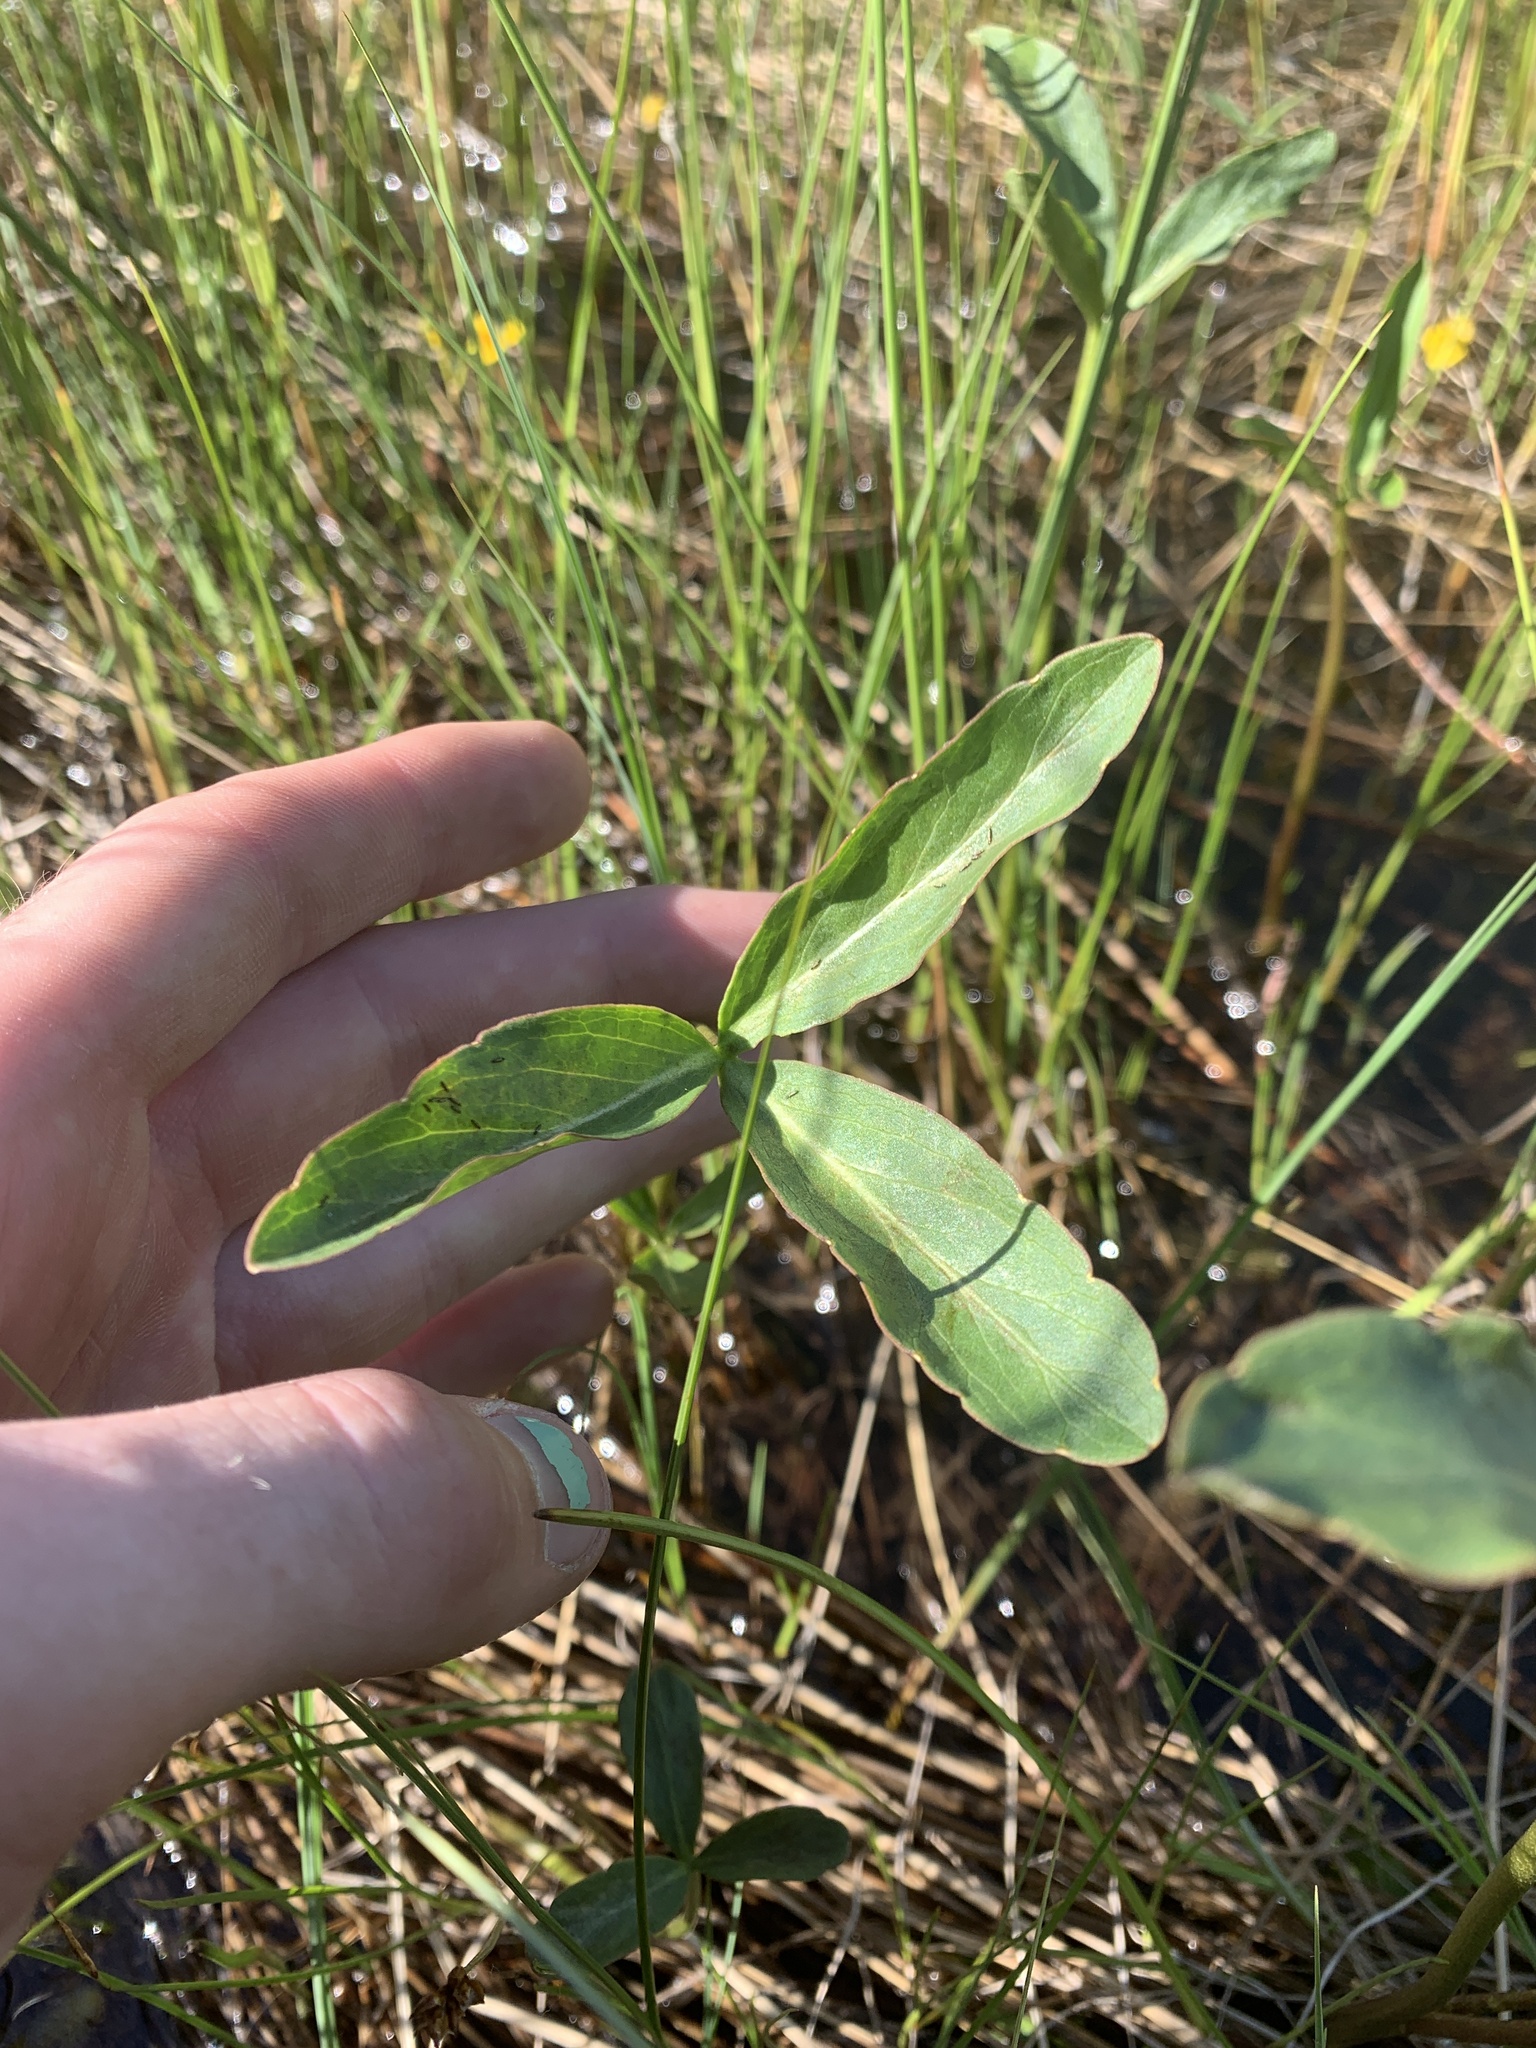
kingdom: Plantae
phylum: Tracheophyta
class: Magnoliopsida
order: Asterales
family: Menyanthaceae
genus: Menyanthes
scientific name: Menyanthes trifoliata
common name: Bogbean
